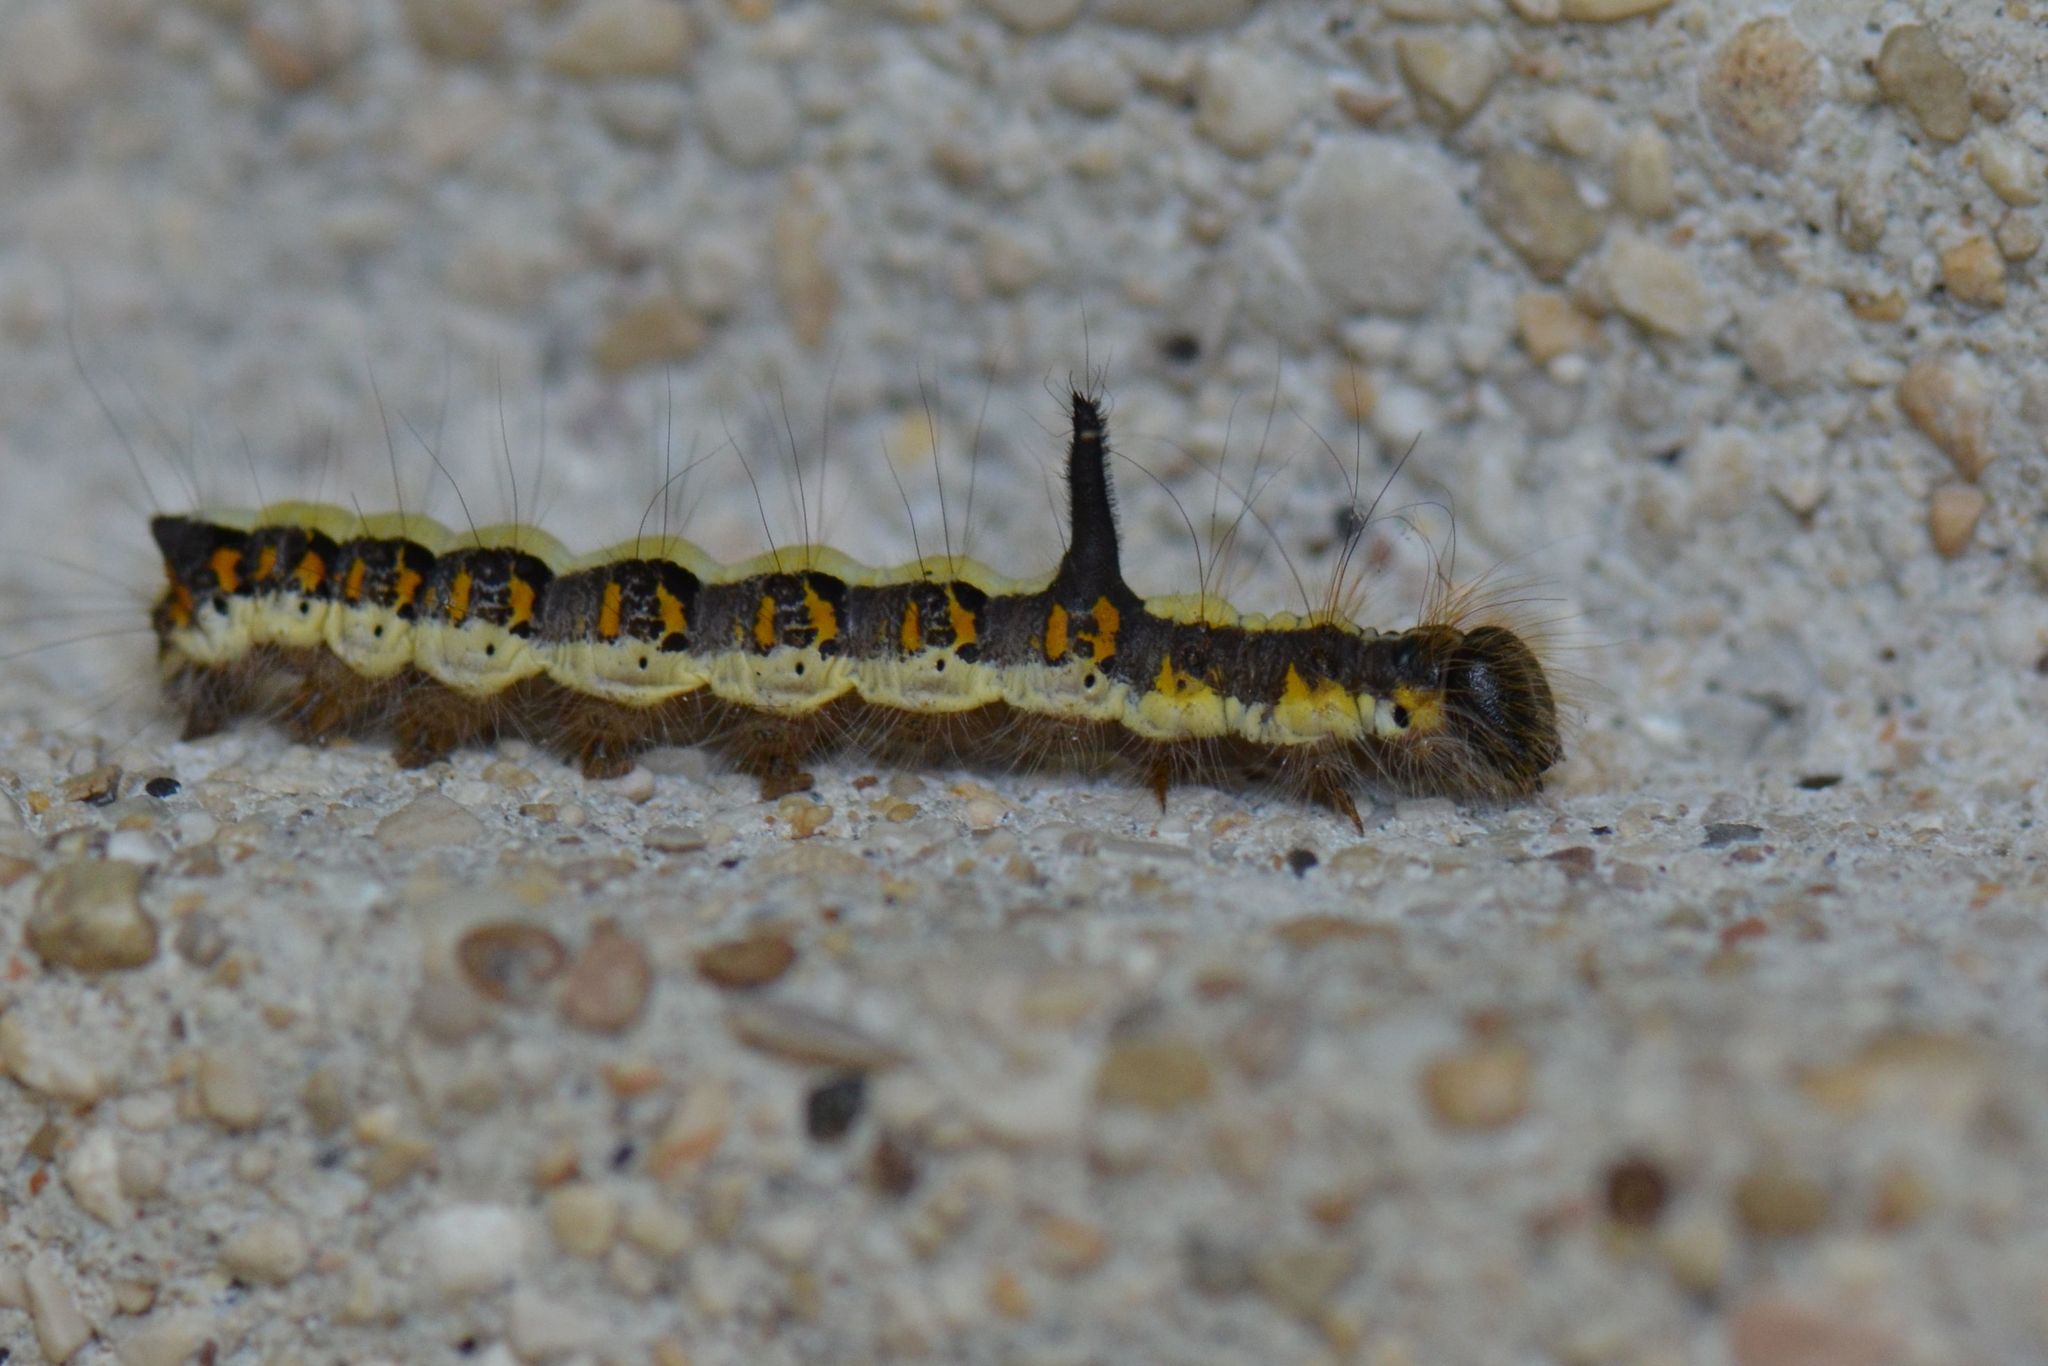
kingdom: Animalia
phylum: Arthropoda
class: Insecta
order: Lepidoptera
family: Noctuidae
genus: Acronicta
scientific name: Acronicta psi
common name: Grey dagger
